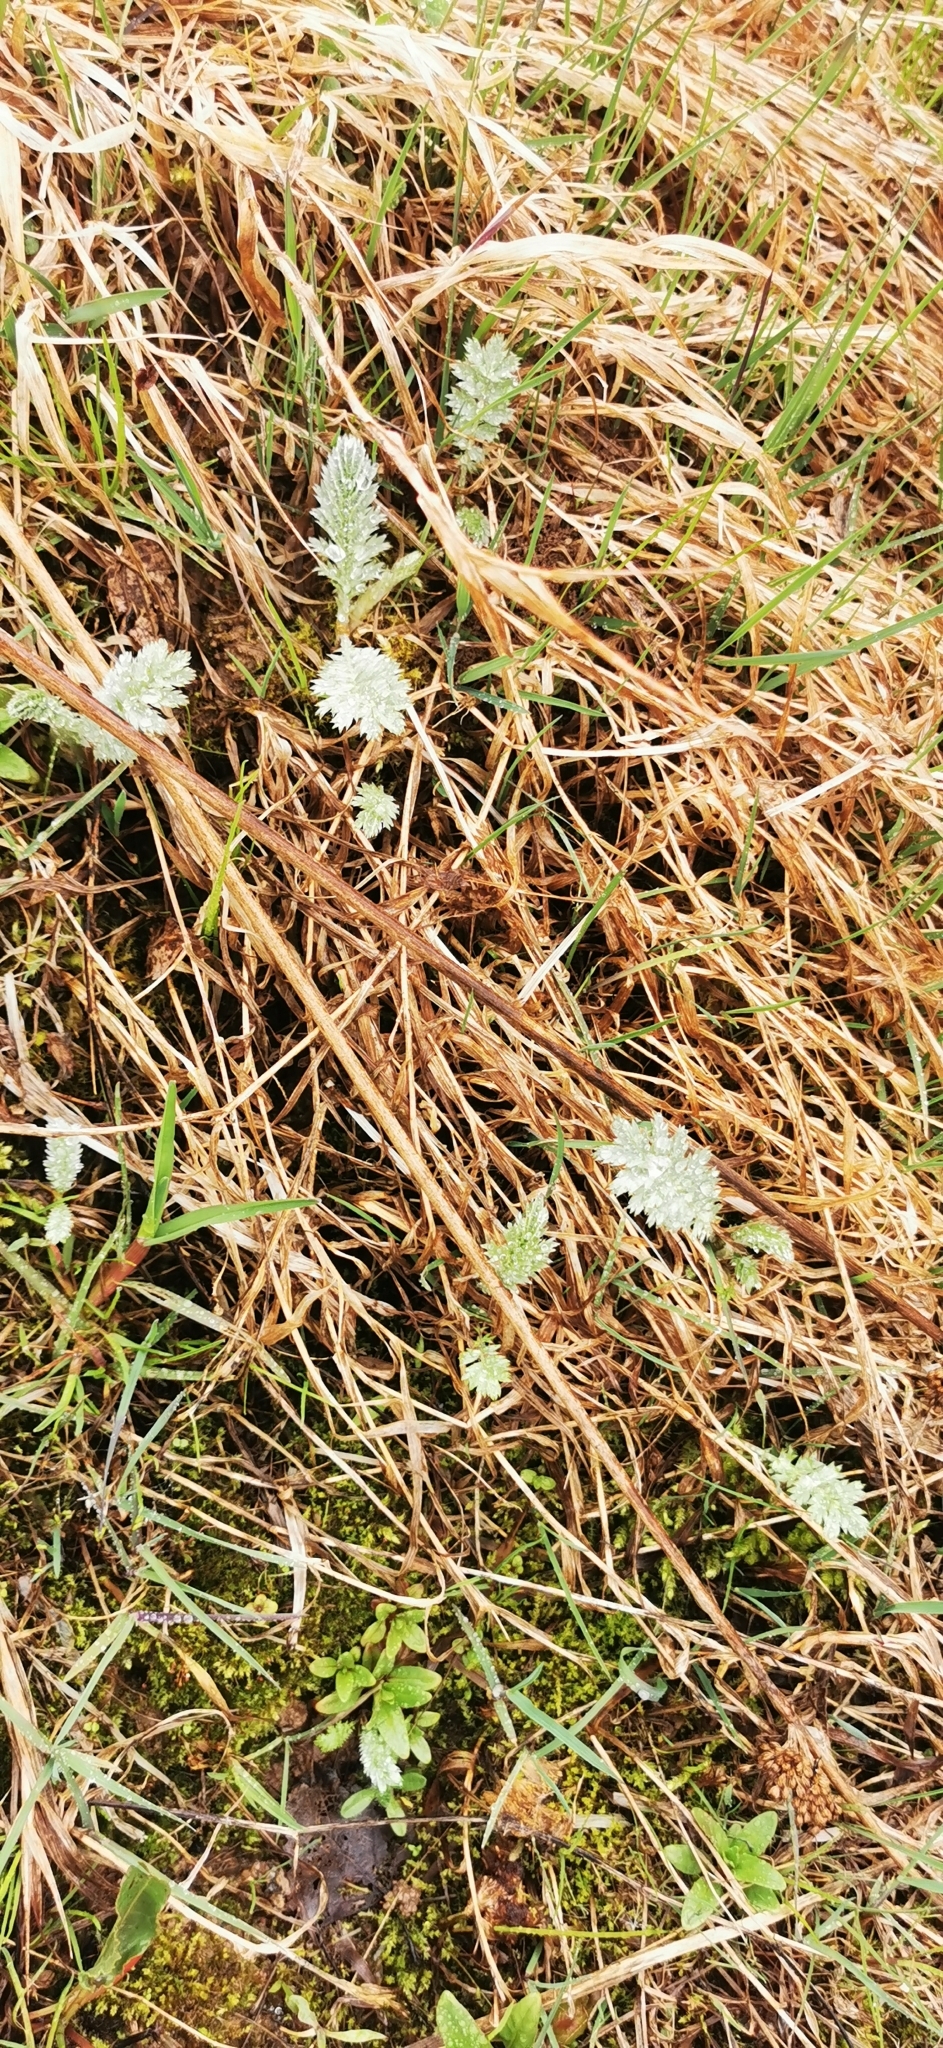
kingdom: Plantae
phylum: Tracheophyta
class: Magnoliopsida
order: Rosales
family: Rosaceae
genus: Argentina
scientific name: Argentina anserina
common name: Common silverweed
